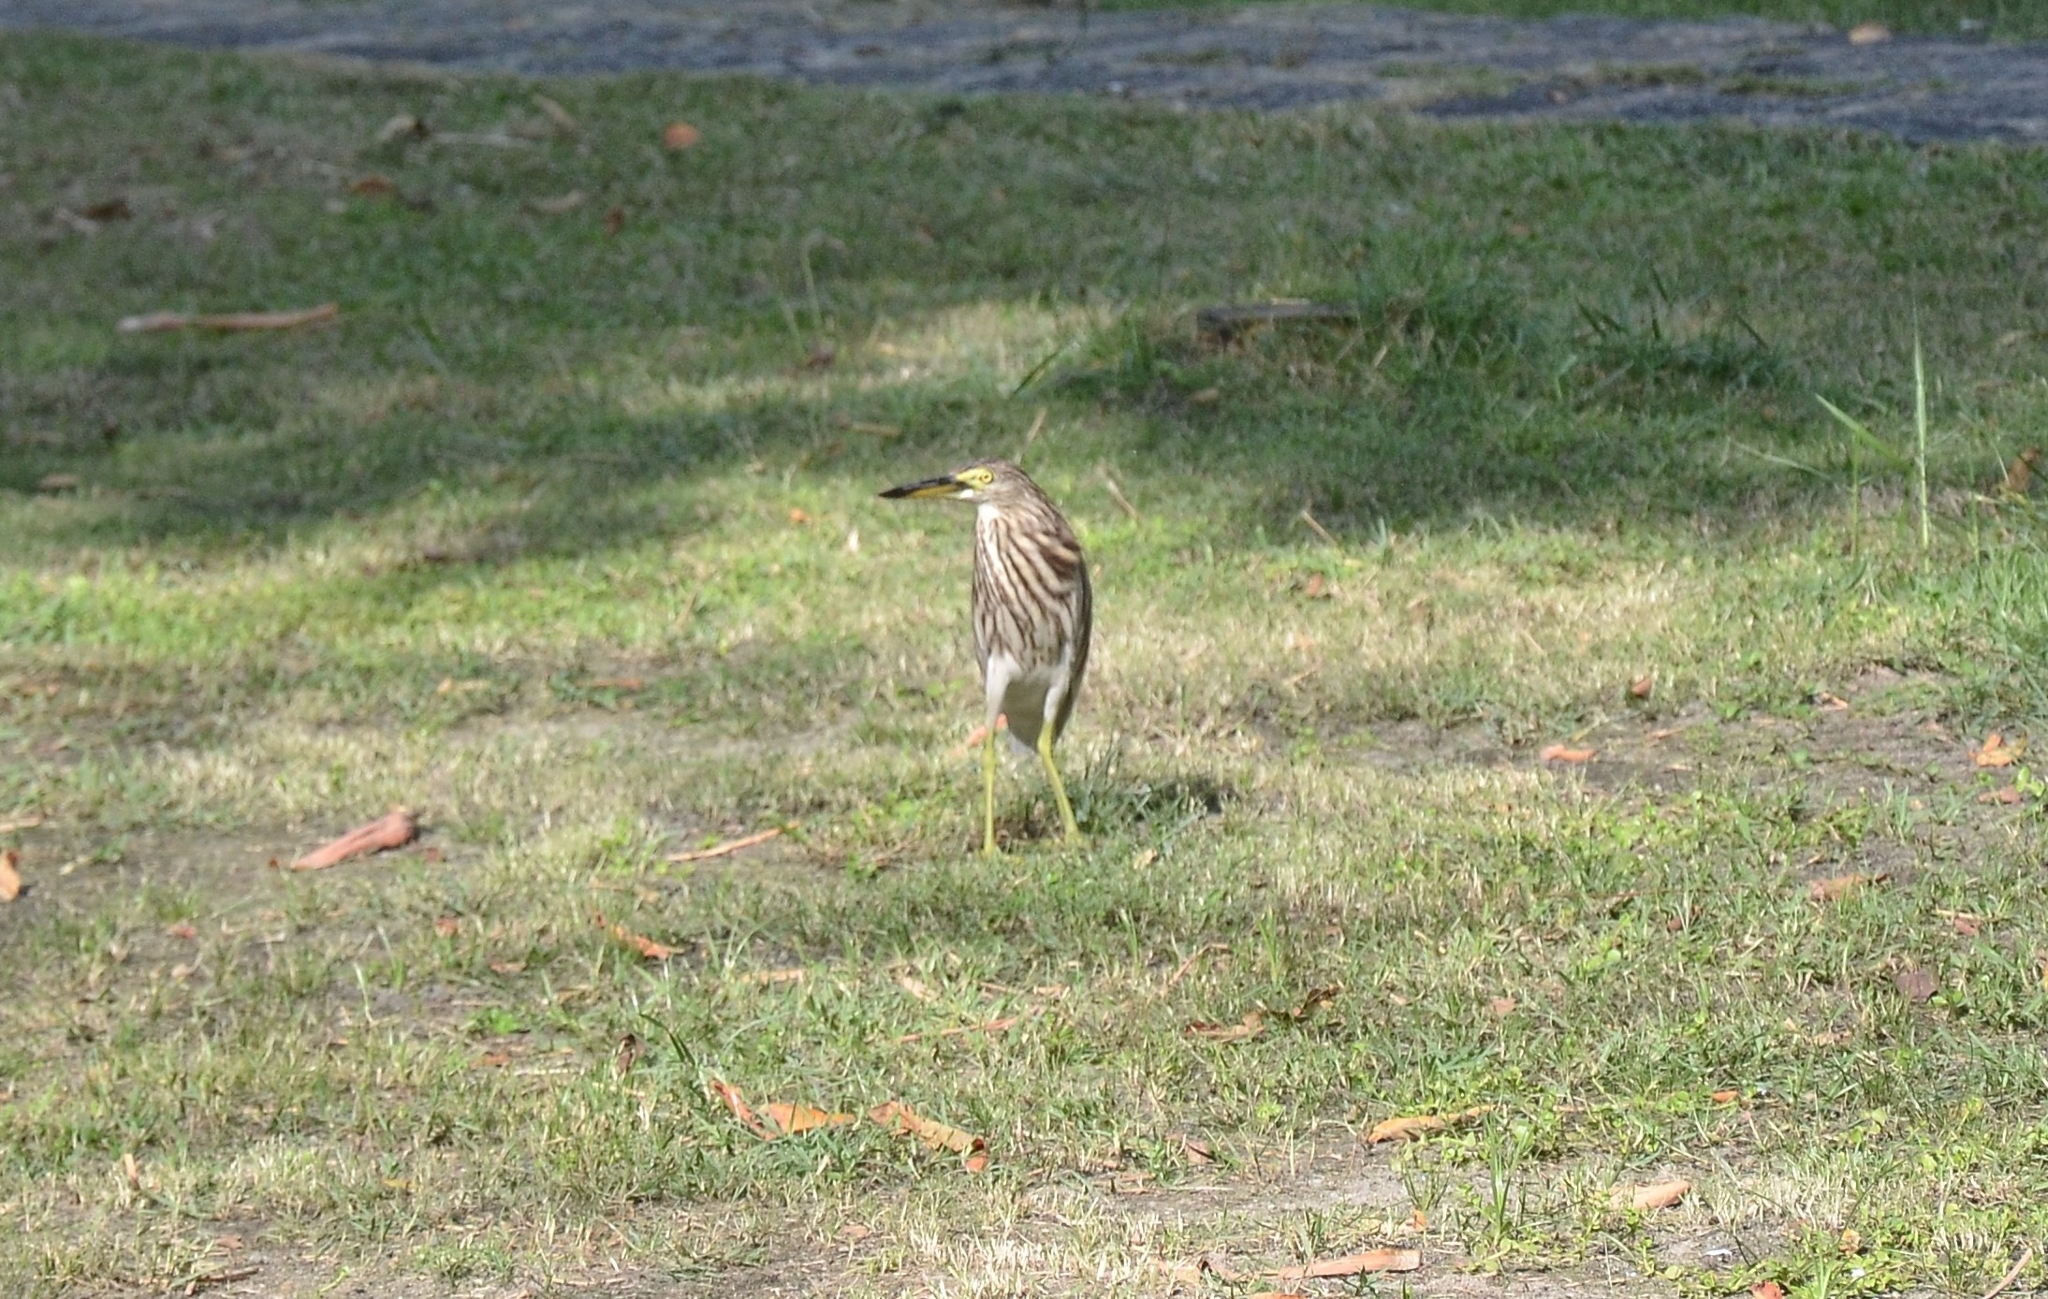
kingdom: Animalia
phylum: Chordata
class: Aves
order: Pelecaniformes
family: Ardeidae
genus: Ardeola
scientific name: Ardeola grayii
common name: Indian pond heron
